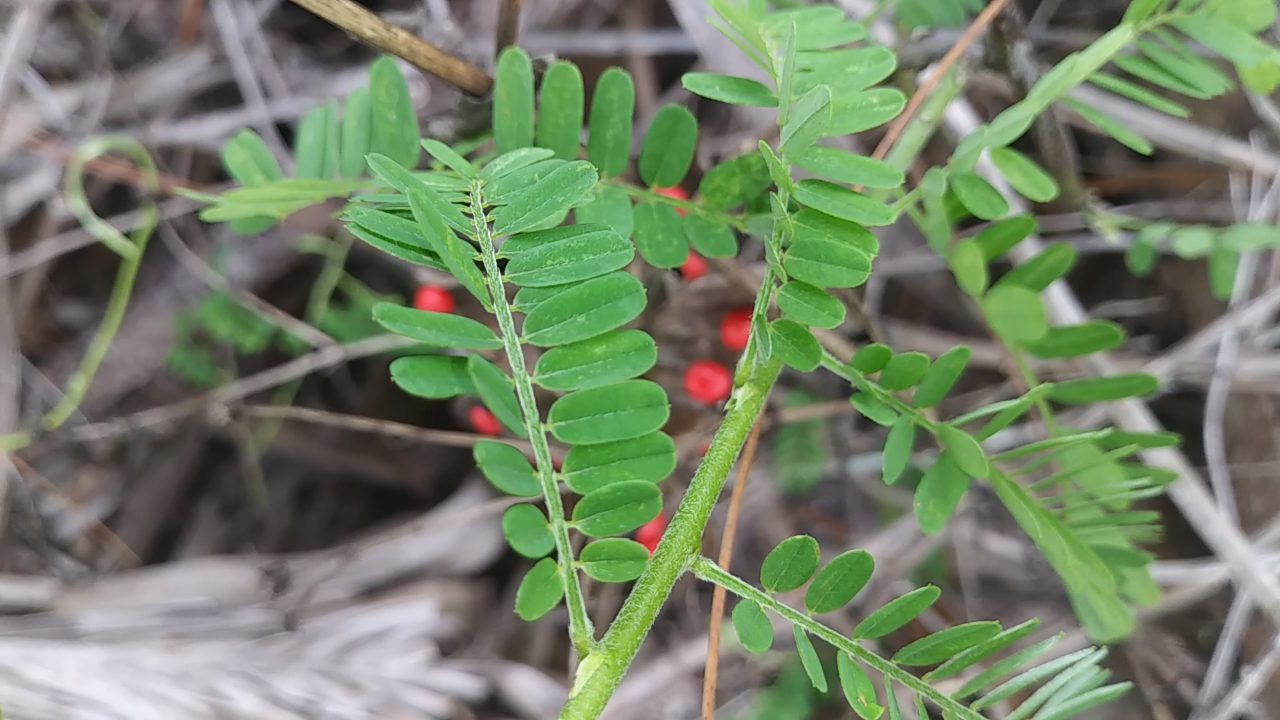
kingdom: Plantae
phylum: Tracheophyta
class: Magnoliopsida
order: Fabales
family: Fabaceae
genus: Abrus
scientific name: Abrus precatorius
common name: Rosarypea
